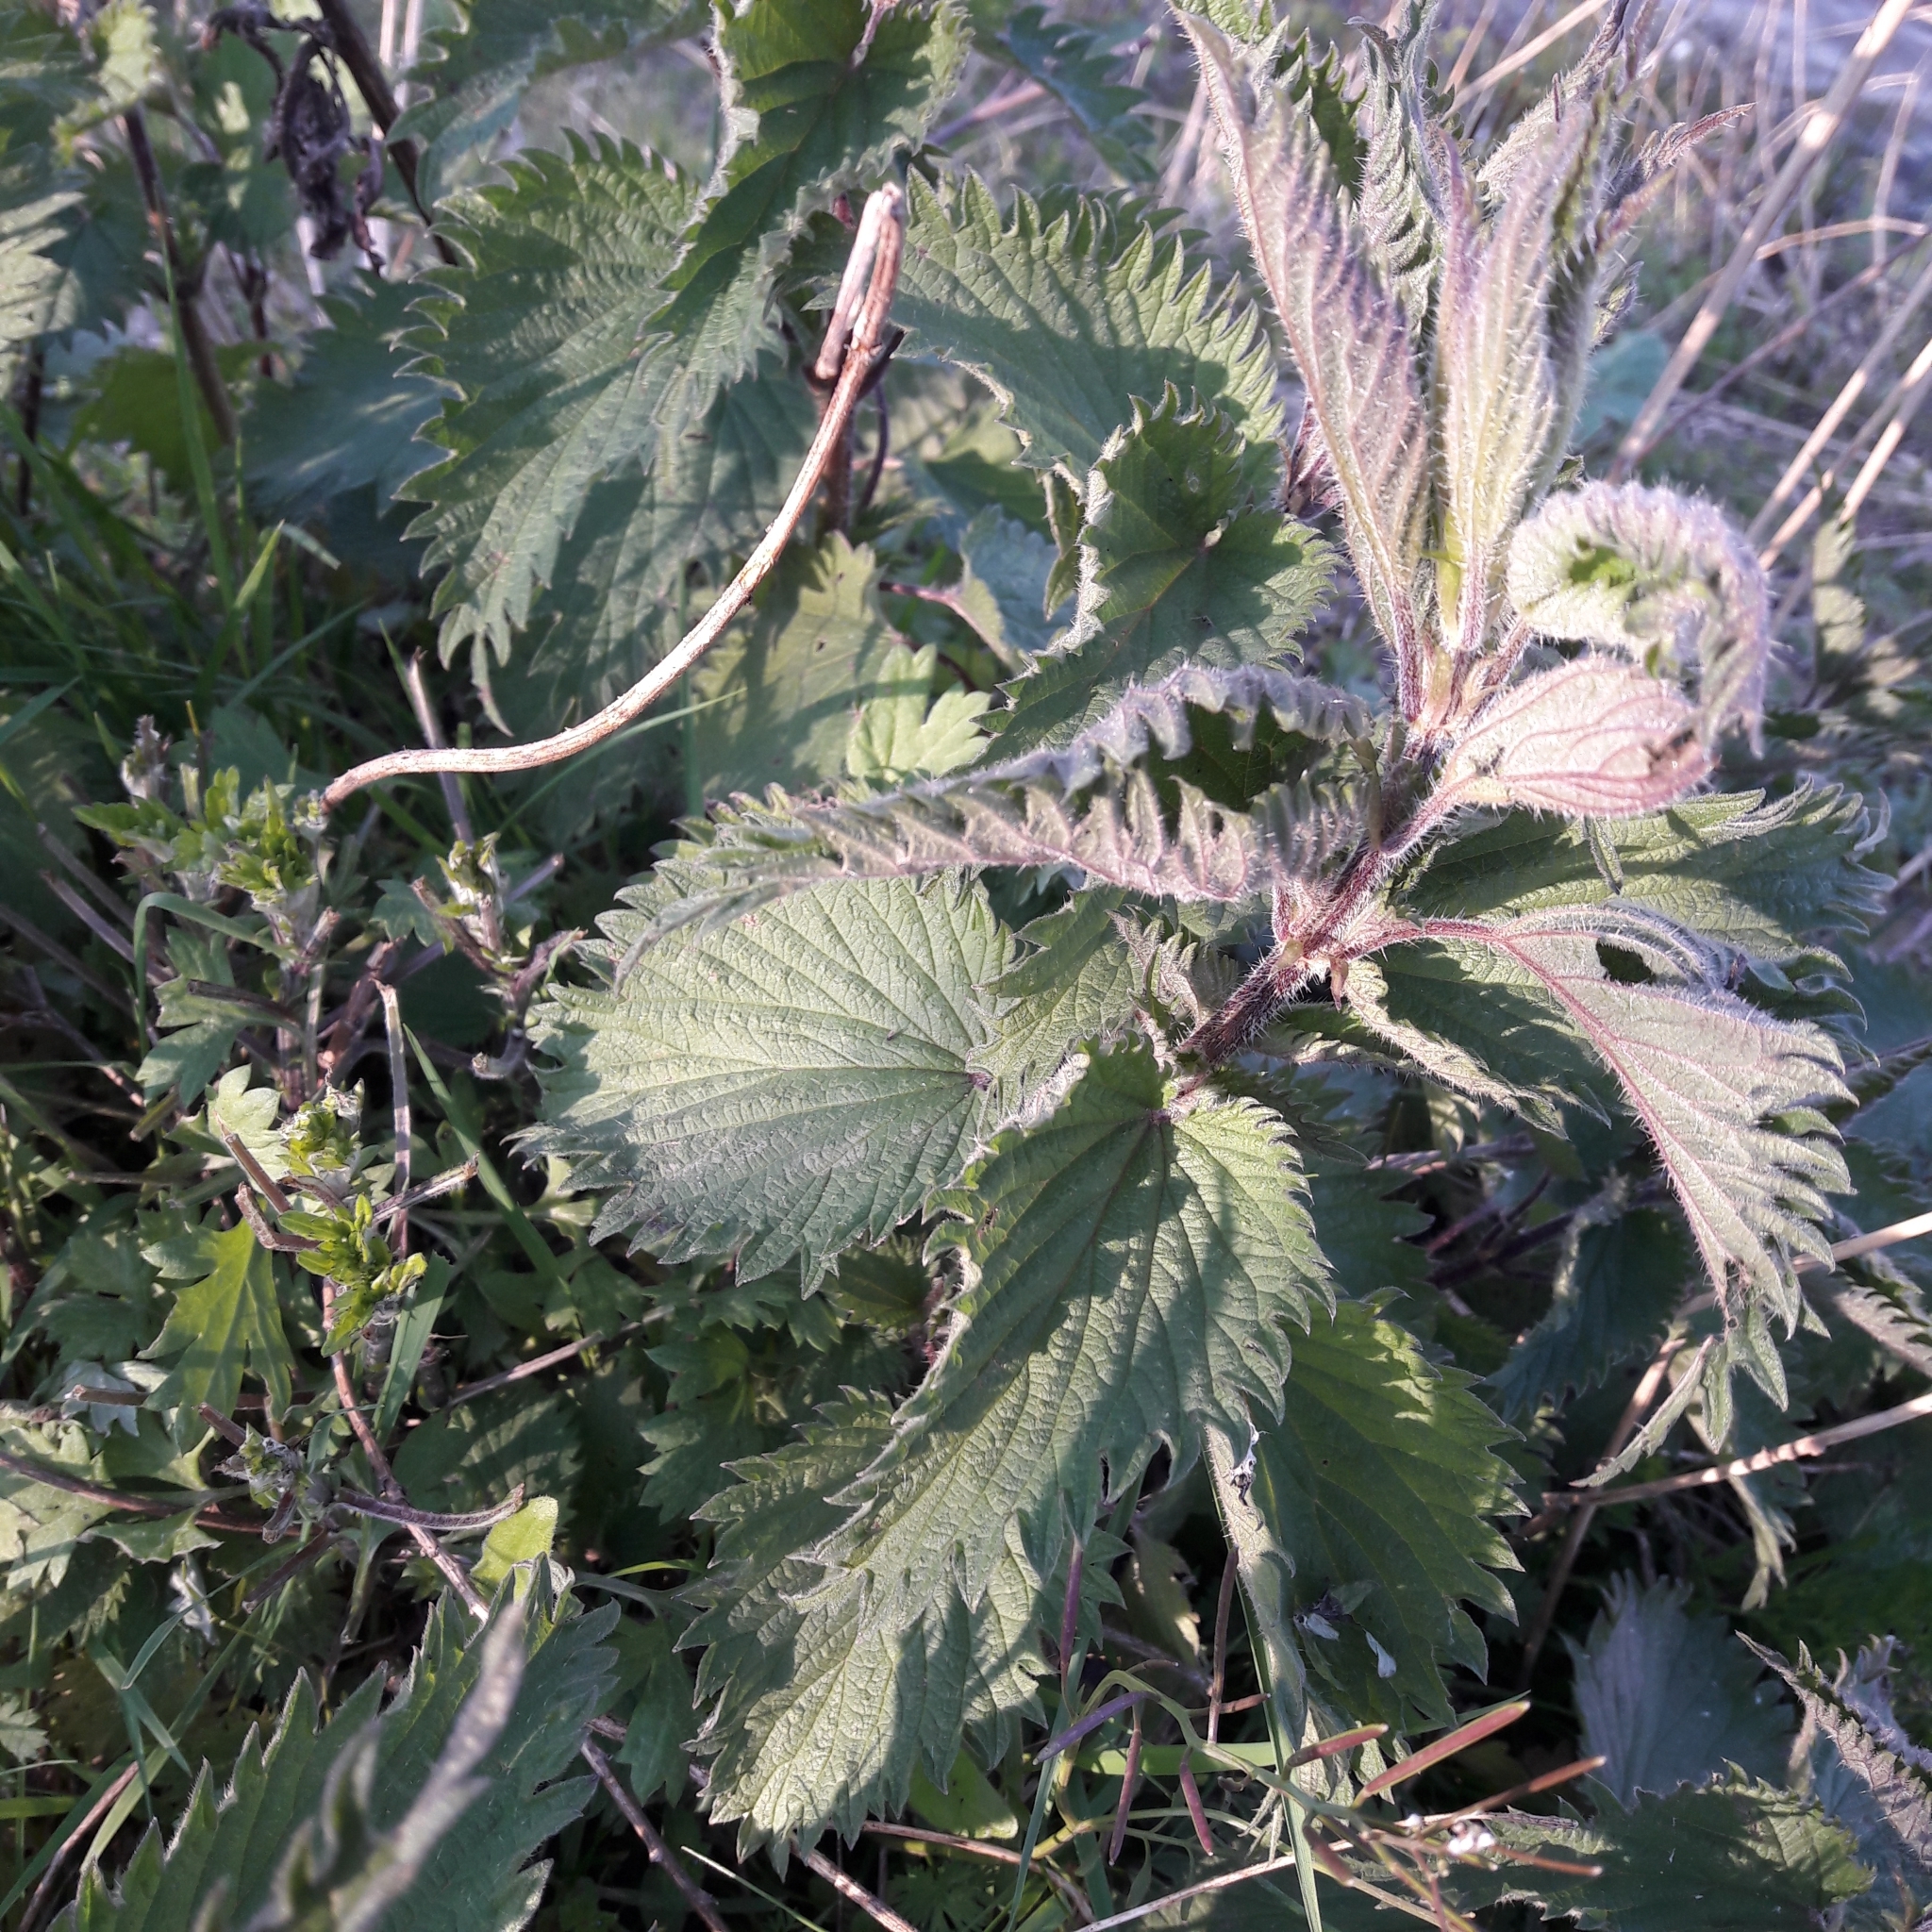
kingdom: Plantae
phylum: Tracheophyta
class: Magnoliopsida
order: Rosales
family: Urticaceae
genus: Urtica
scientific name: Urtica dioica
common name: Common nettle
